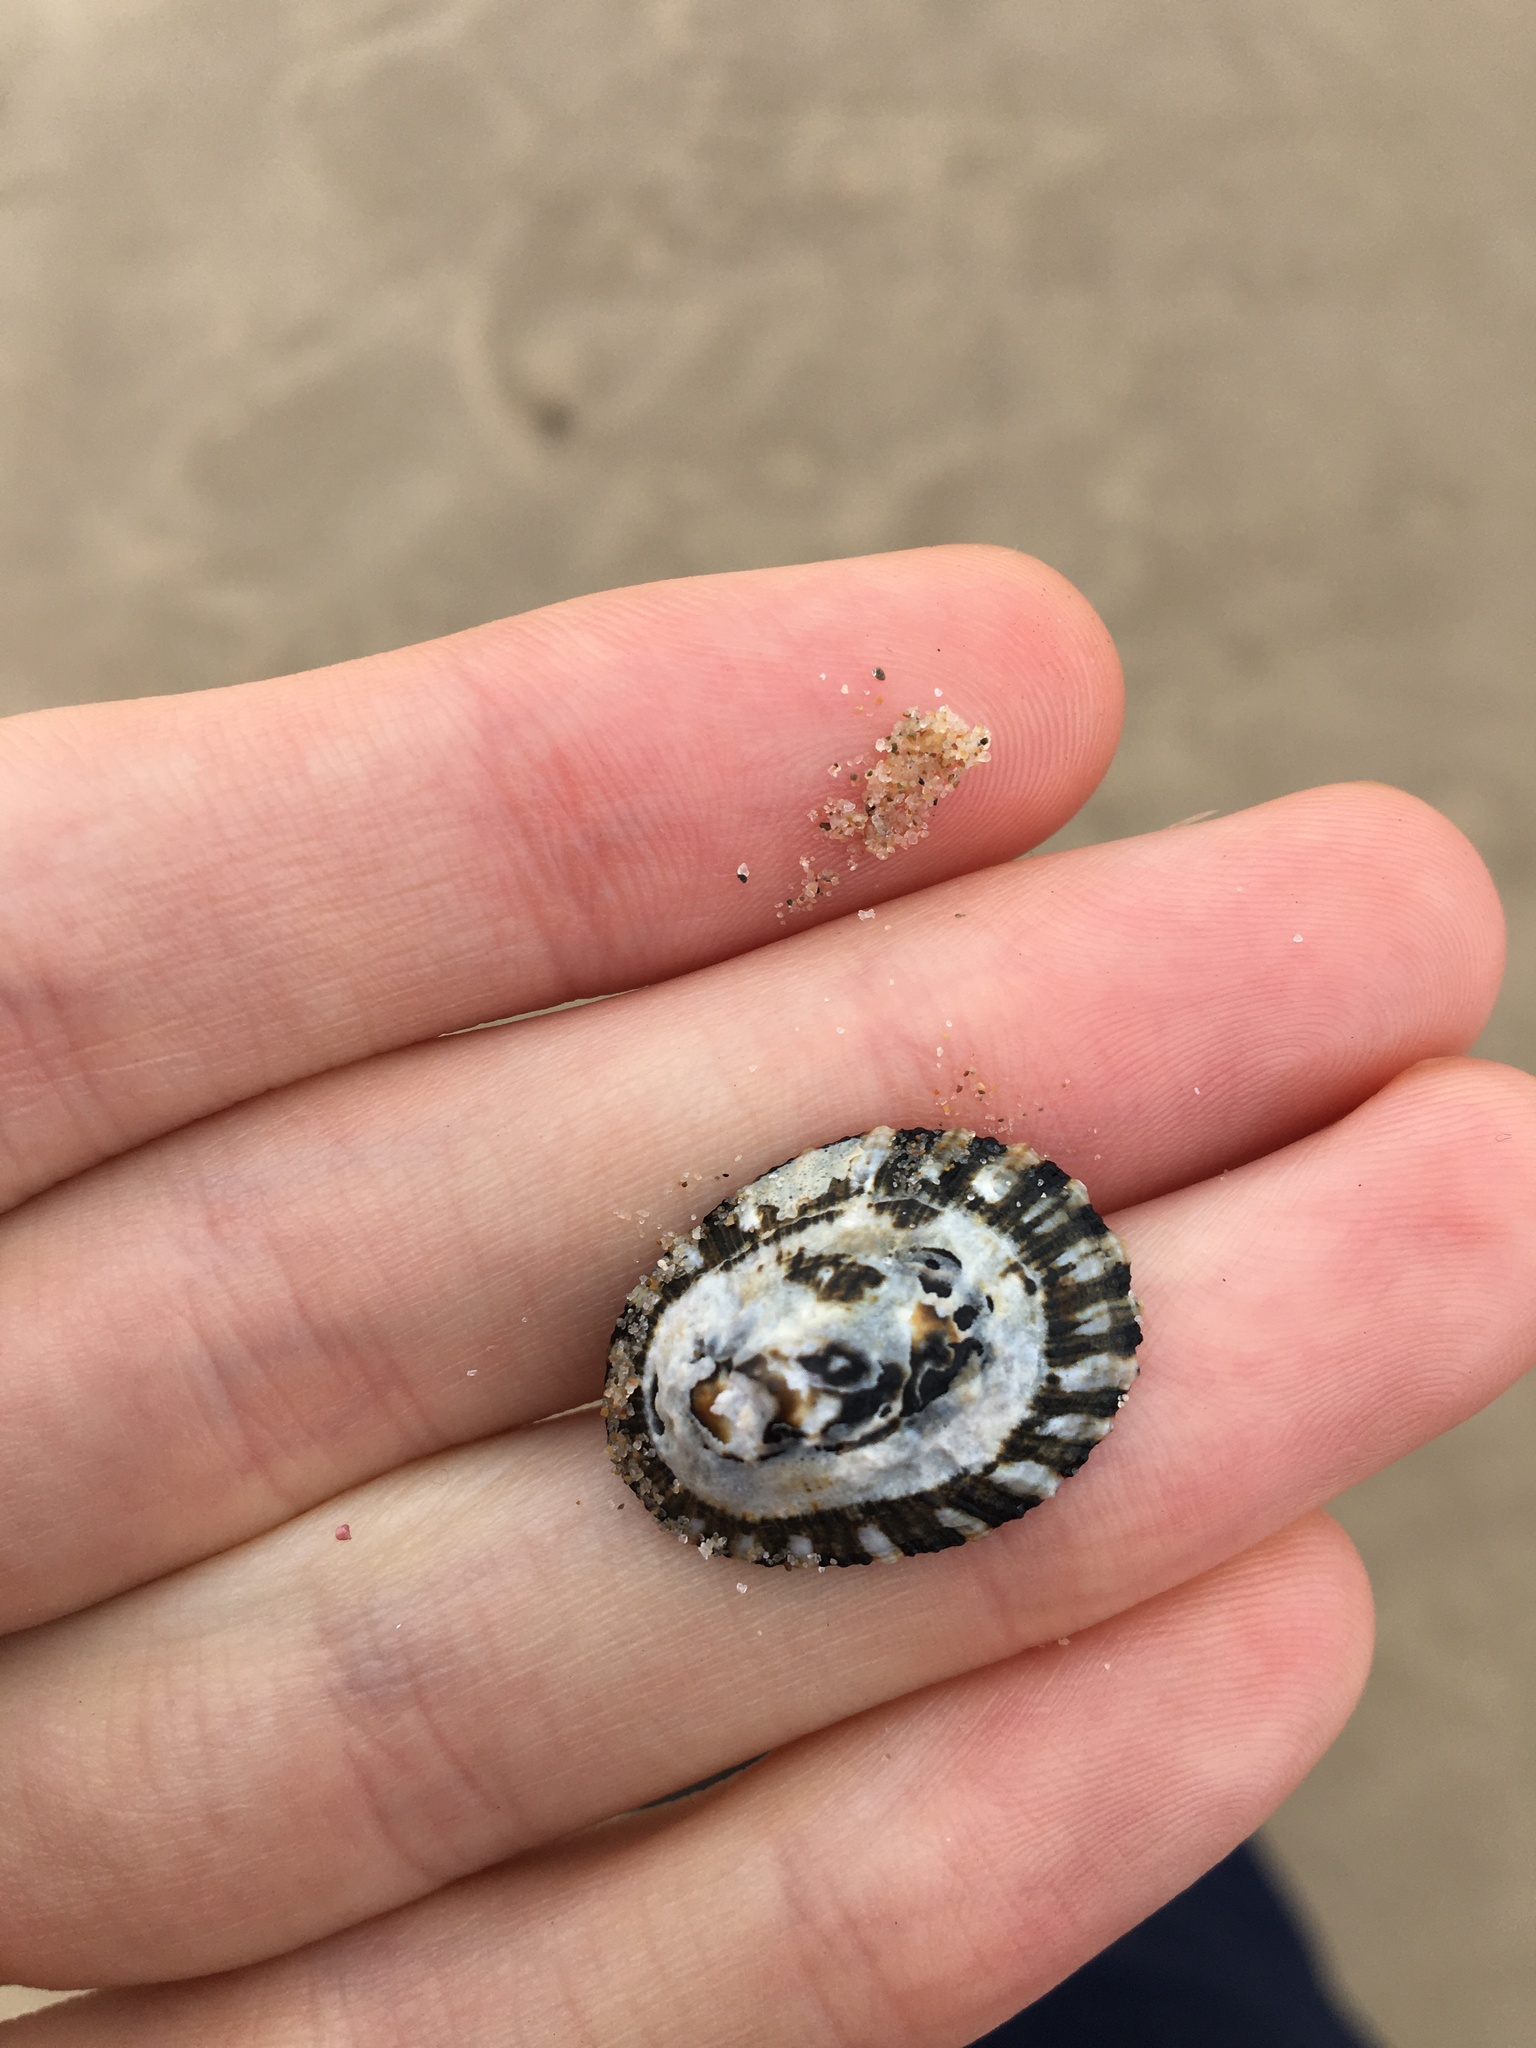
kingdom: Animalia
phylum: Mollusca
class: Gastropoda
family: Patellidae
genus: Scutellastra
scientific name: Scutellastra peronii
